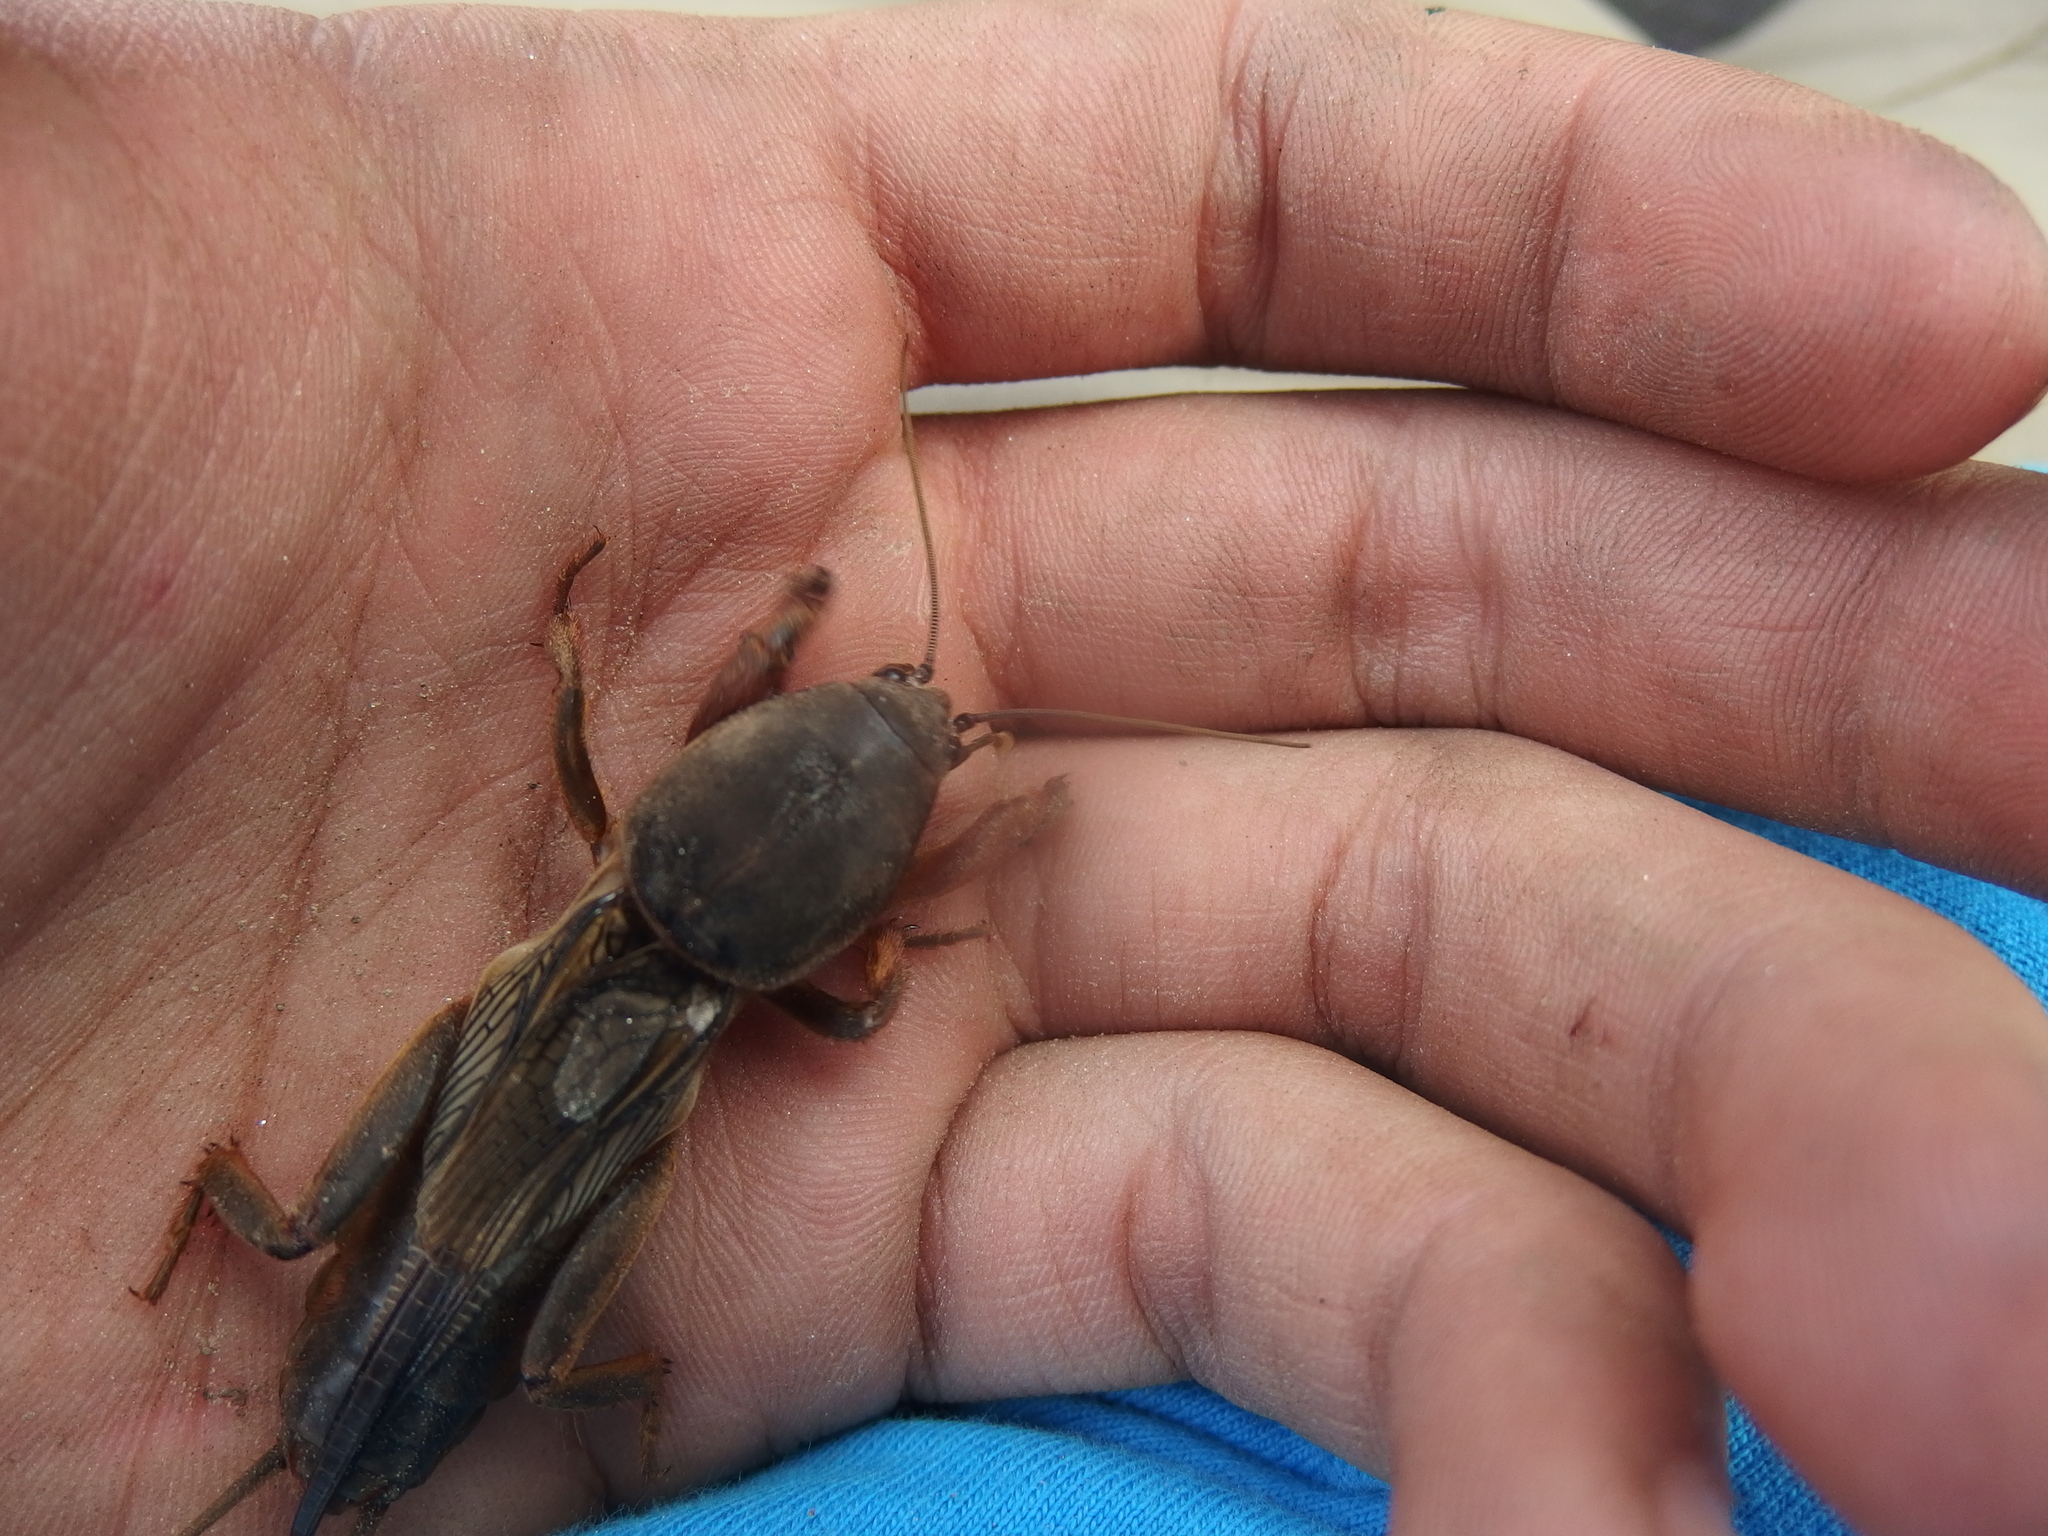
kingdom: Animalia
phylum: Arthropoda
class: Insecta
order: Orthoptera
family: Gryllotalpidae
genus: Gryllotalpa
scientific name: Gryllotalpa gryllotalpa
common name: European mole cricket
